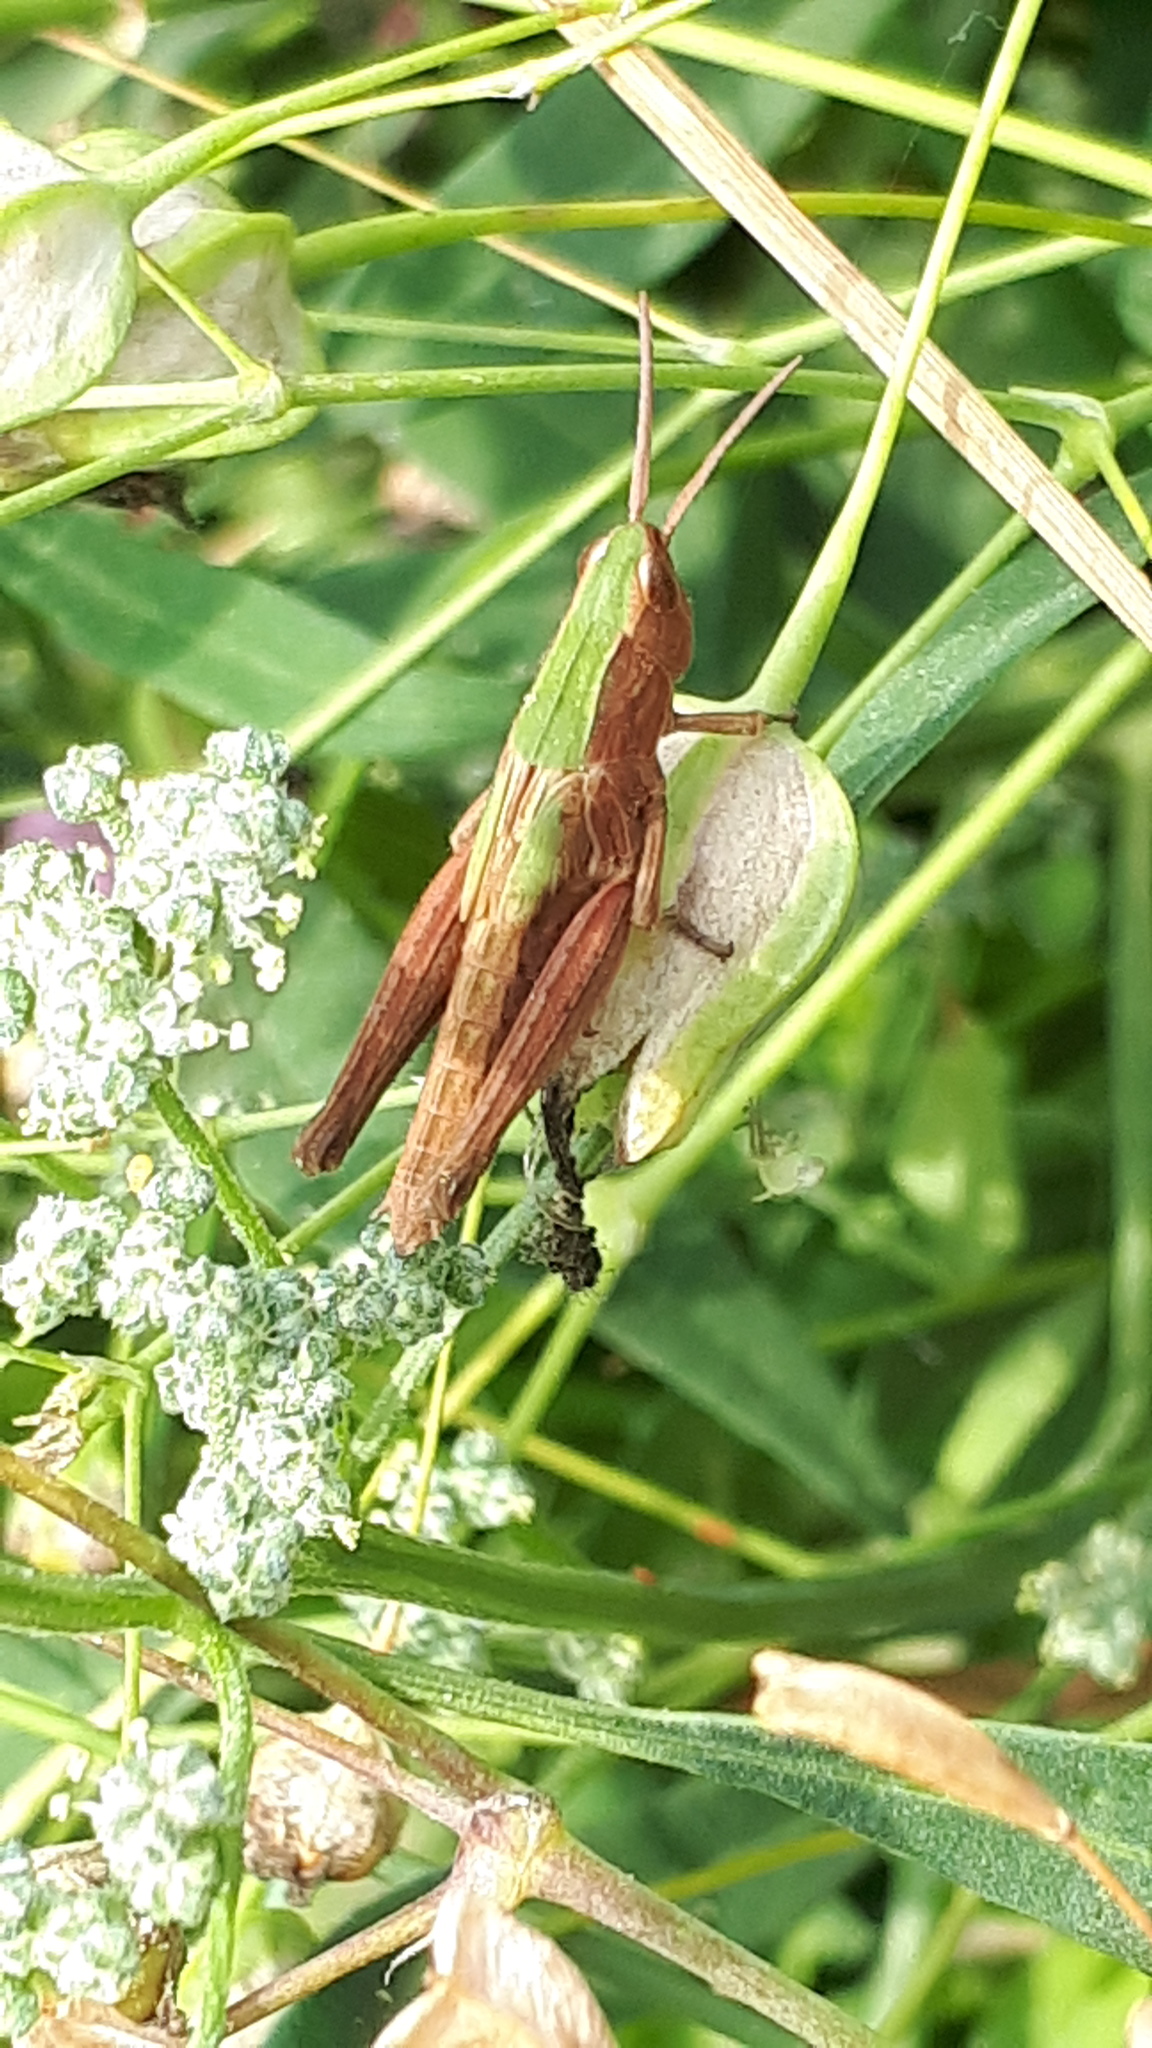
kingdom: Animalia
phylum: Arthropoda
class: Insecta
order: Orthoptera
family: Acrididae
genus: Chorthippus
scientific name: Chorthippus dorsatus
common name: Steppe grasshopper
